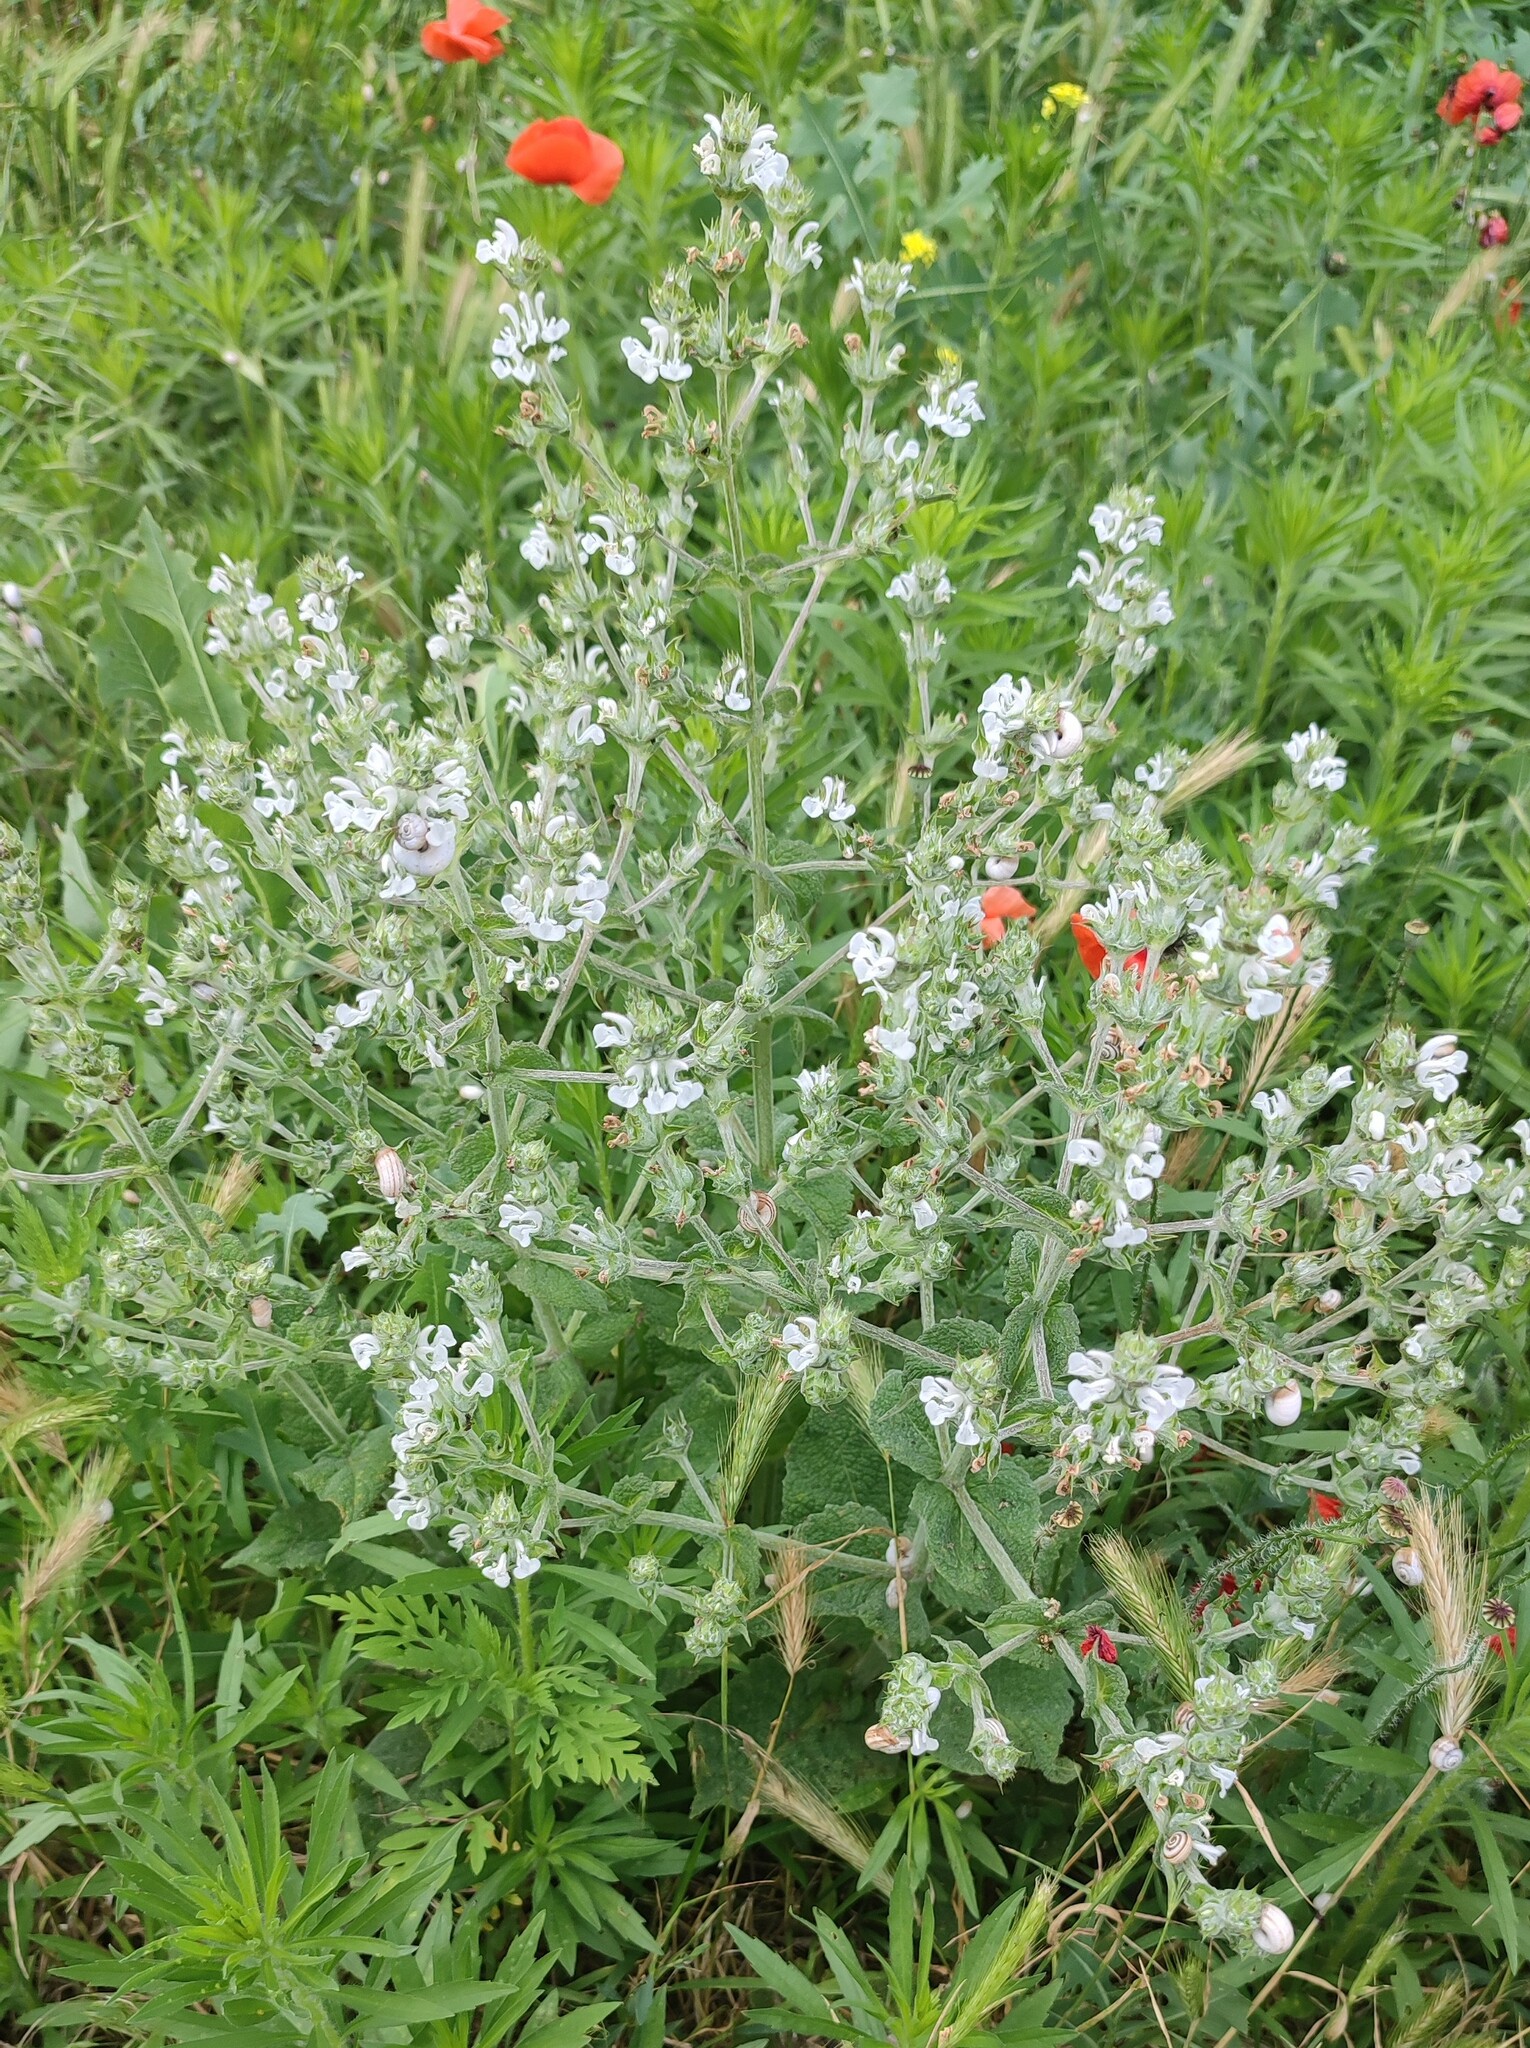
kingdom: Plantae
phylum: Tracheophyta
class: Magnoliopsida
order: Lamiales
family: Lamiaceae
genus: Salvia
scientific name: Salvia aethiopis
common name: Mediterranean sage
